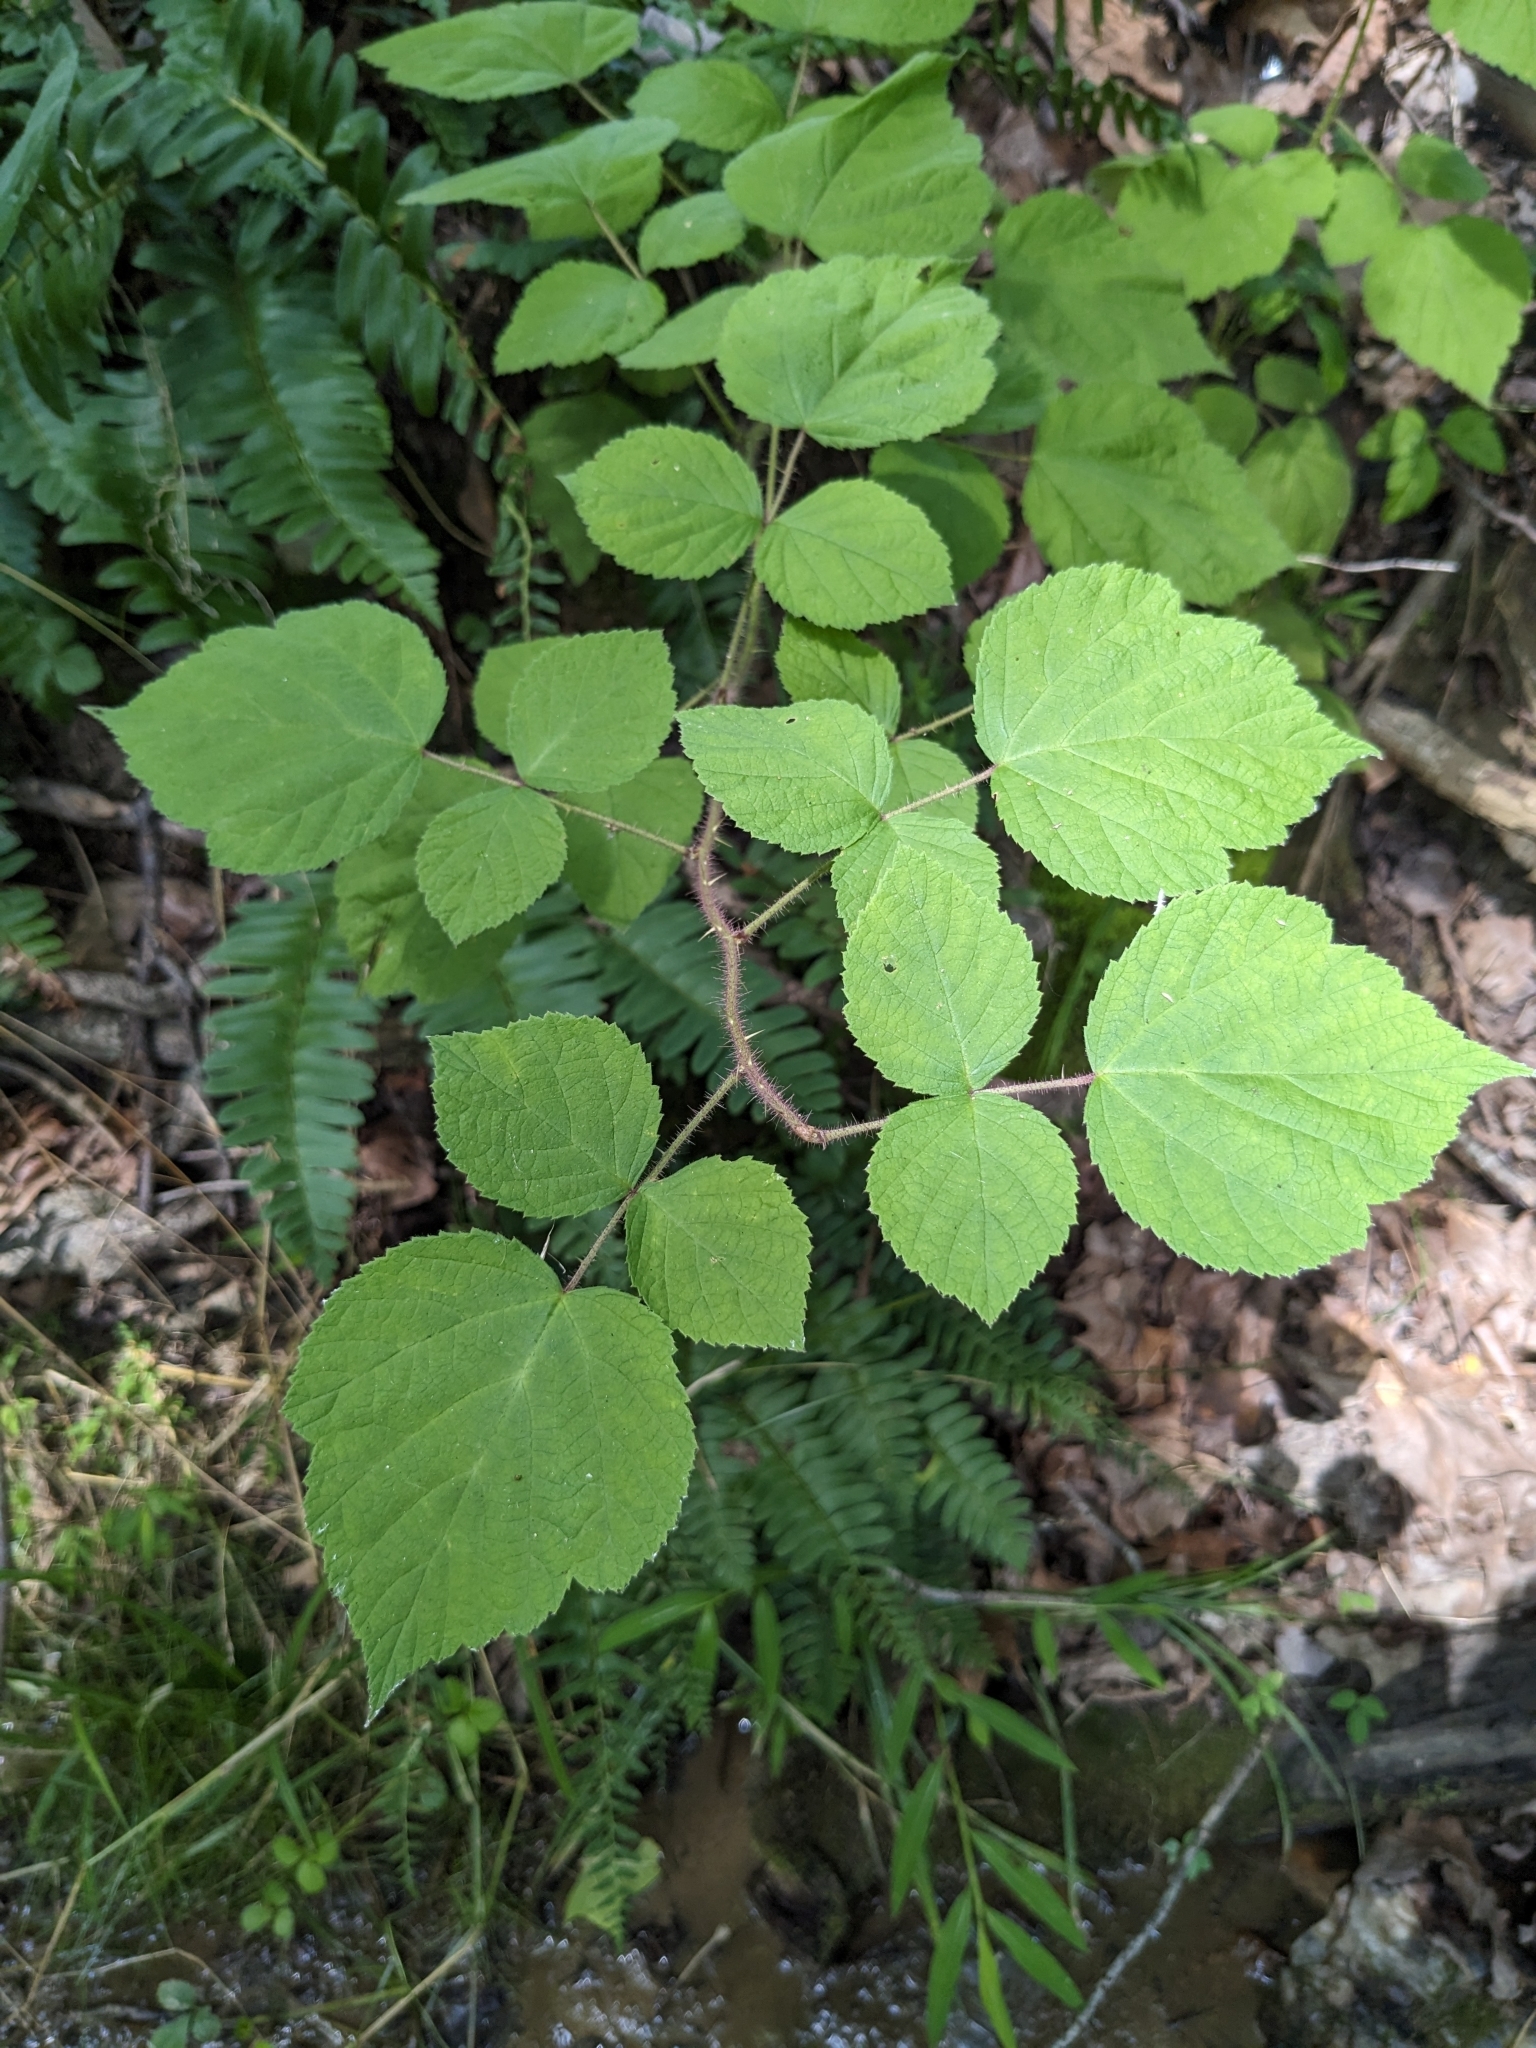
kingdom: Plantae
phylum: Tracheophyta
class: Magnoliopsida
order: Rosales
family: Rosaceae
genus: Rubus
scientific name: Rubus phoenicolasius
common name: Japanese wineberry
